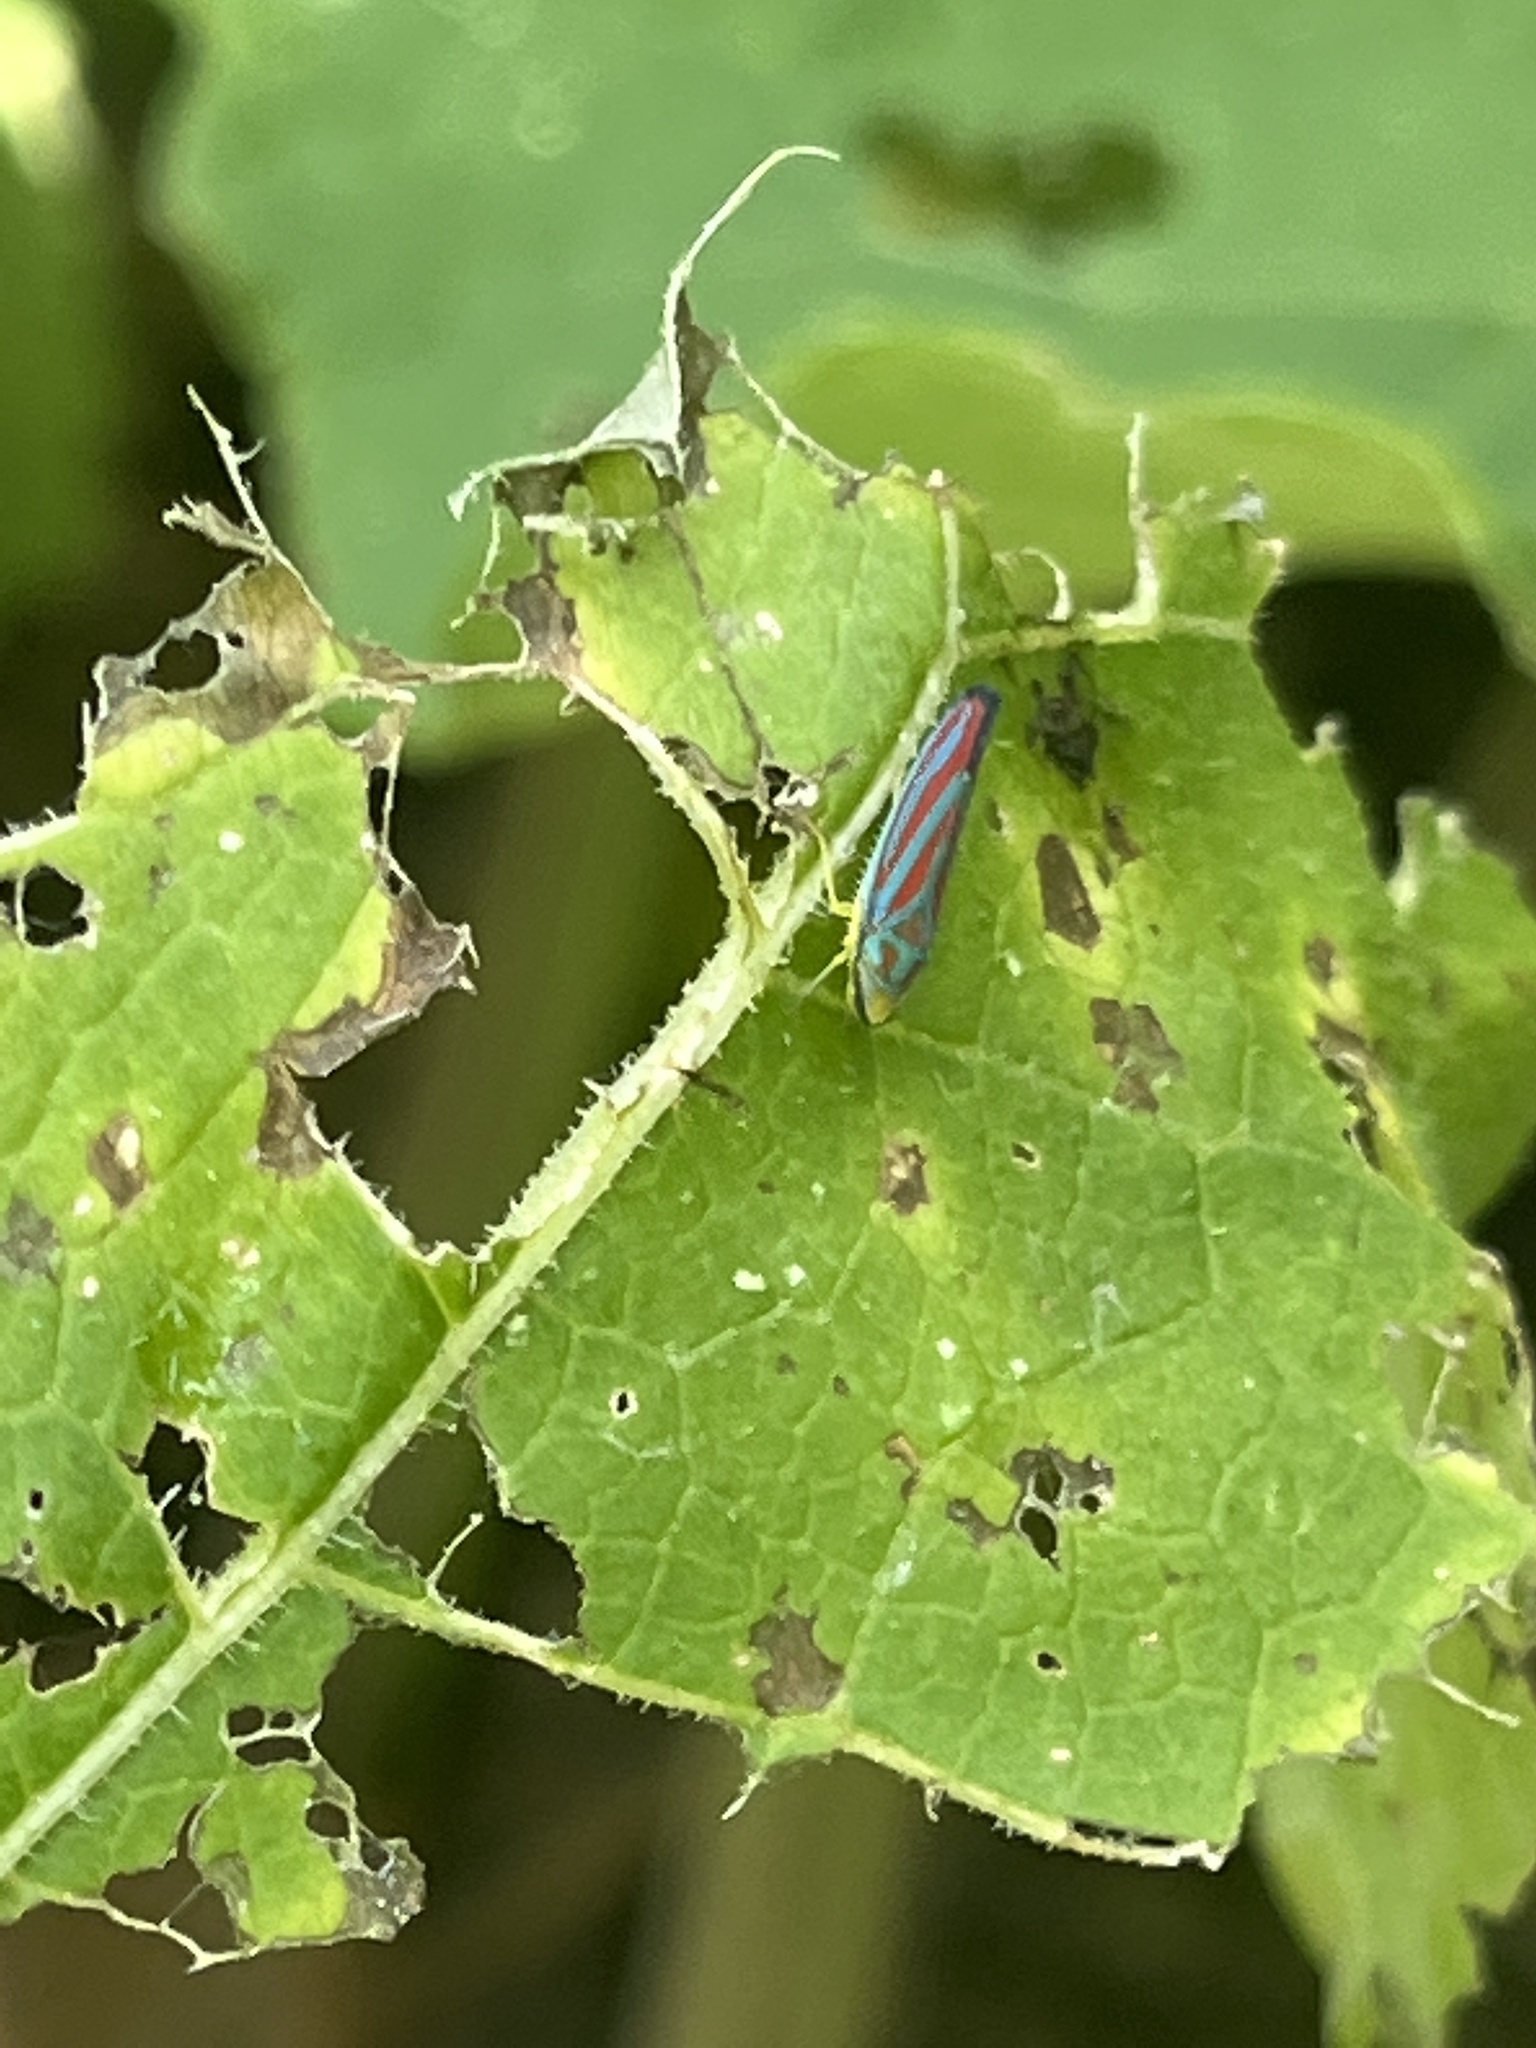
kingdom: Animalia
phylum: Arthropoda
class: Insecta
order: Hemiptera
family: Cicadellidae
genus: Graphocephala
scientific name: Graphocephala coccinea
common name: Candy-striped leafhopper
